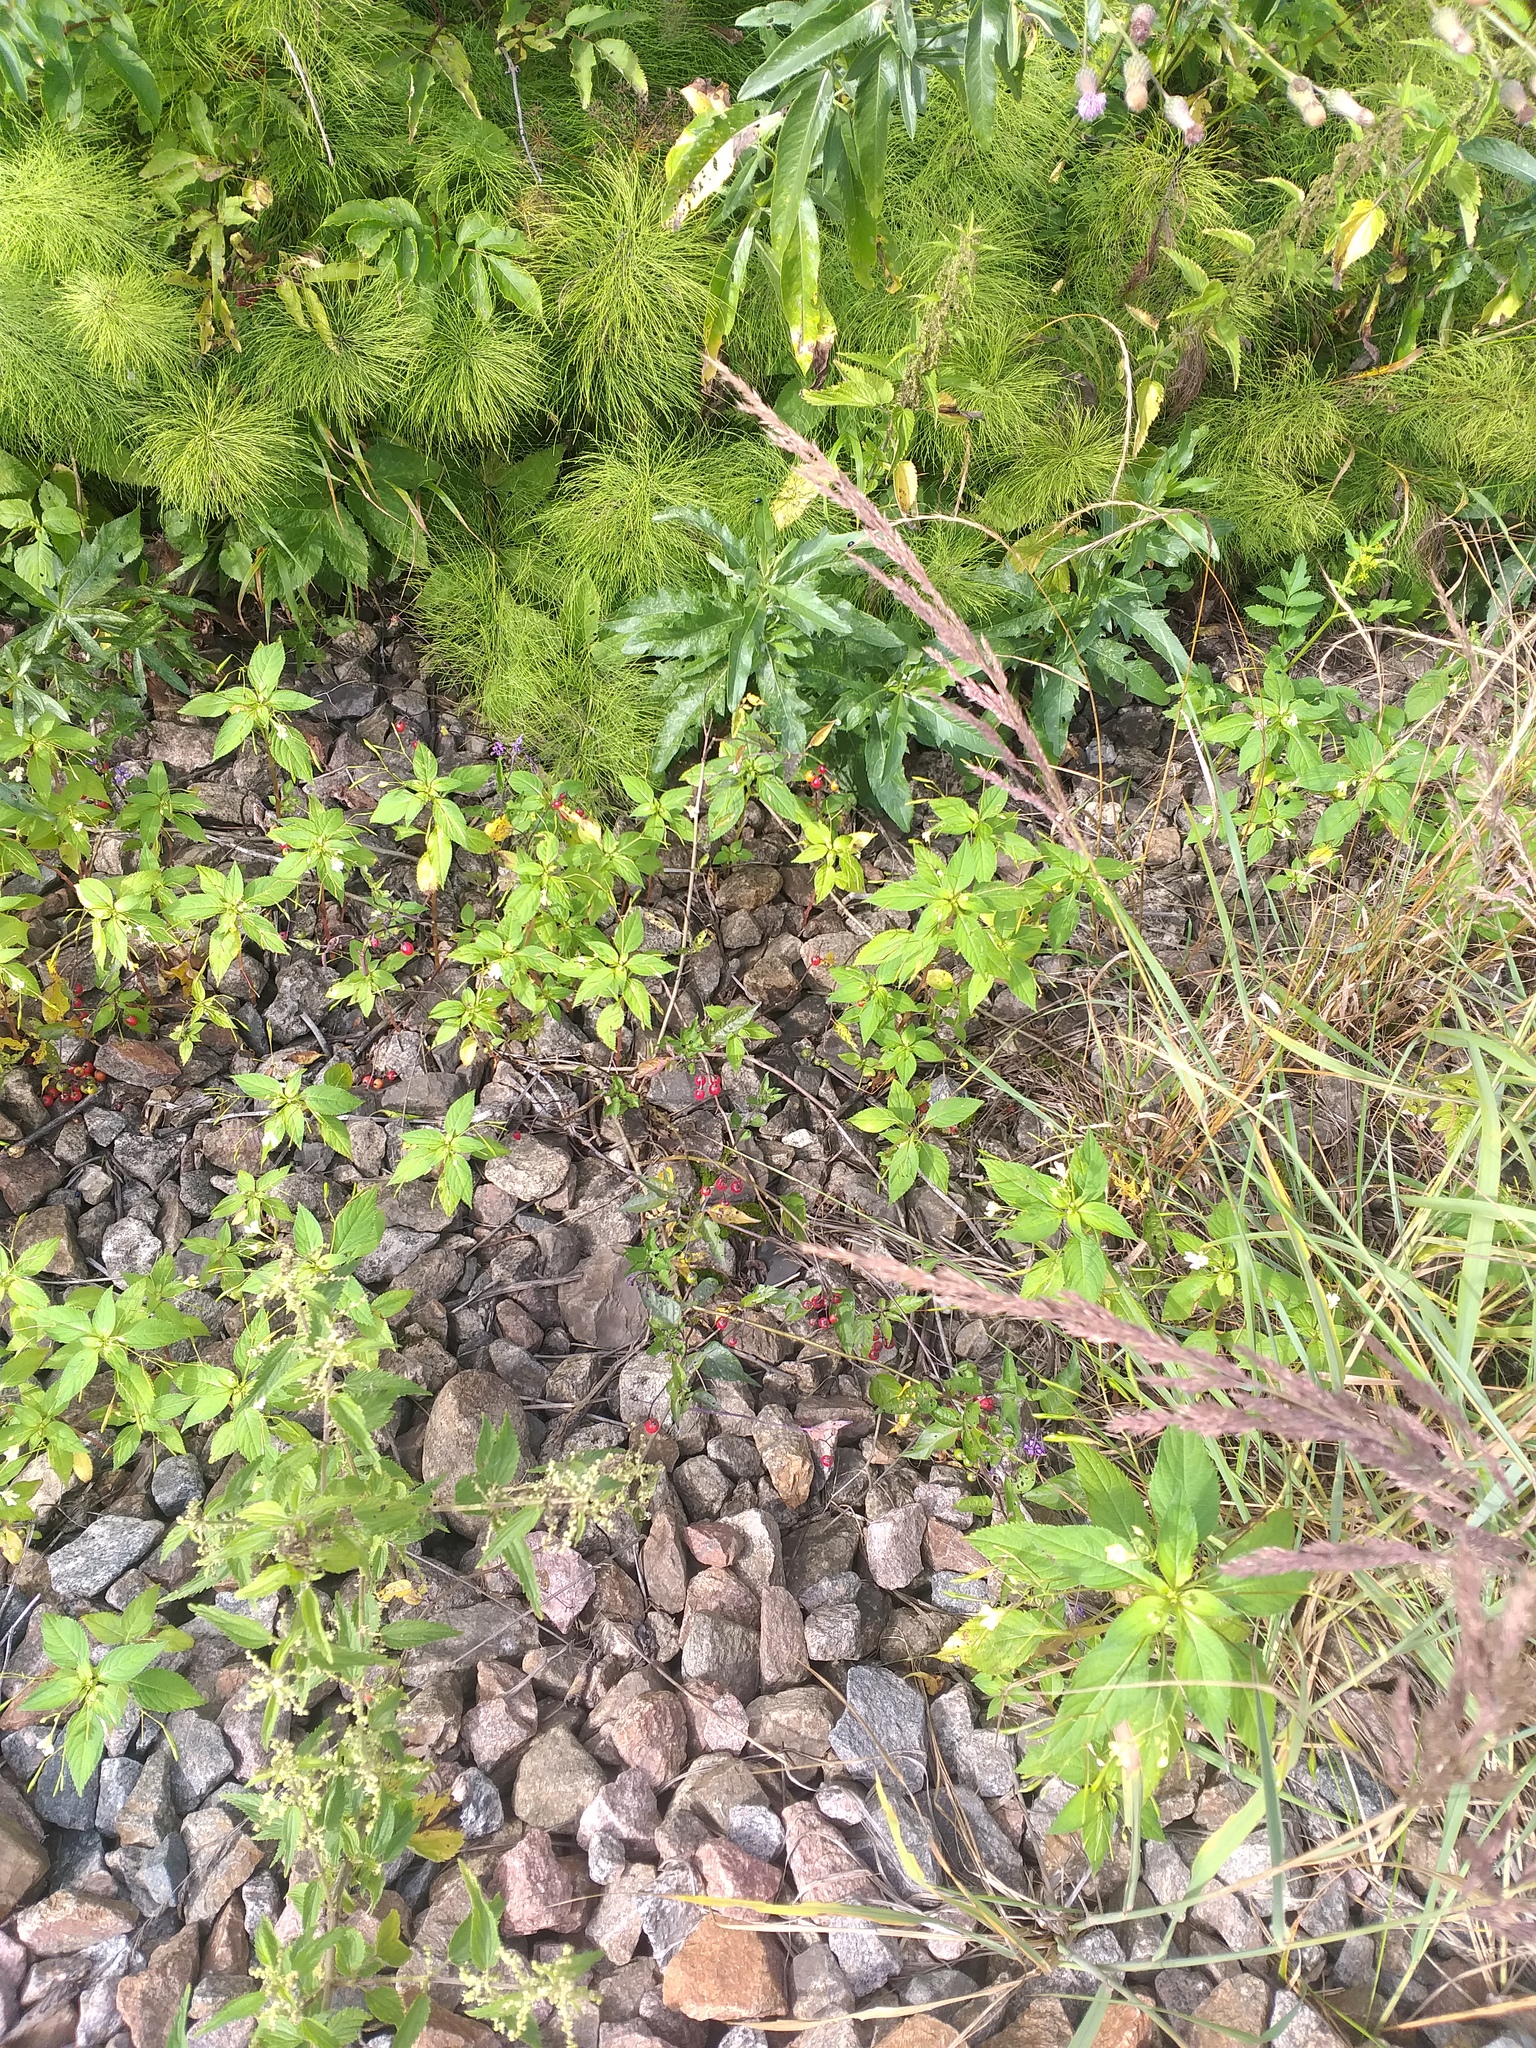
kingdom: Plantae
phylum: Tracheophyta
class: Magnoliopsida
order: Solanales
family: Solanaceae
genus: Solanum
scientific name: Solanum dulcamara
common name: Climbing nightshade
